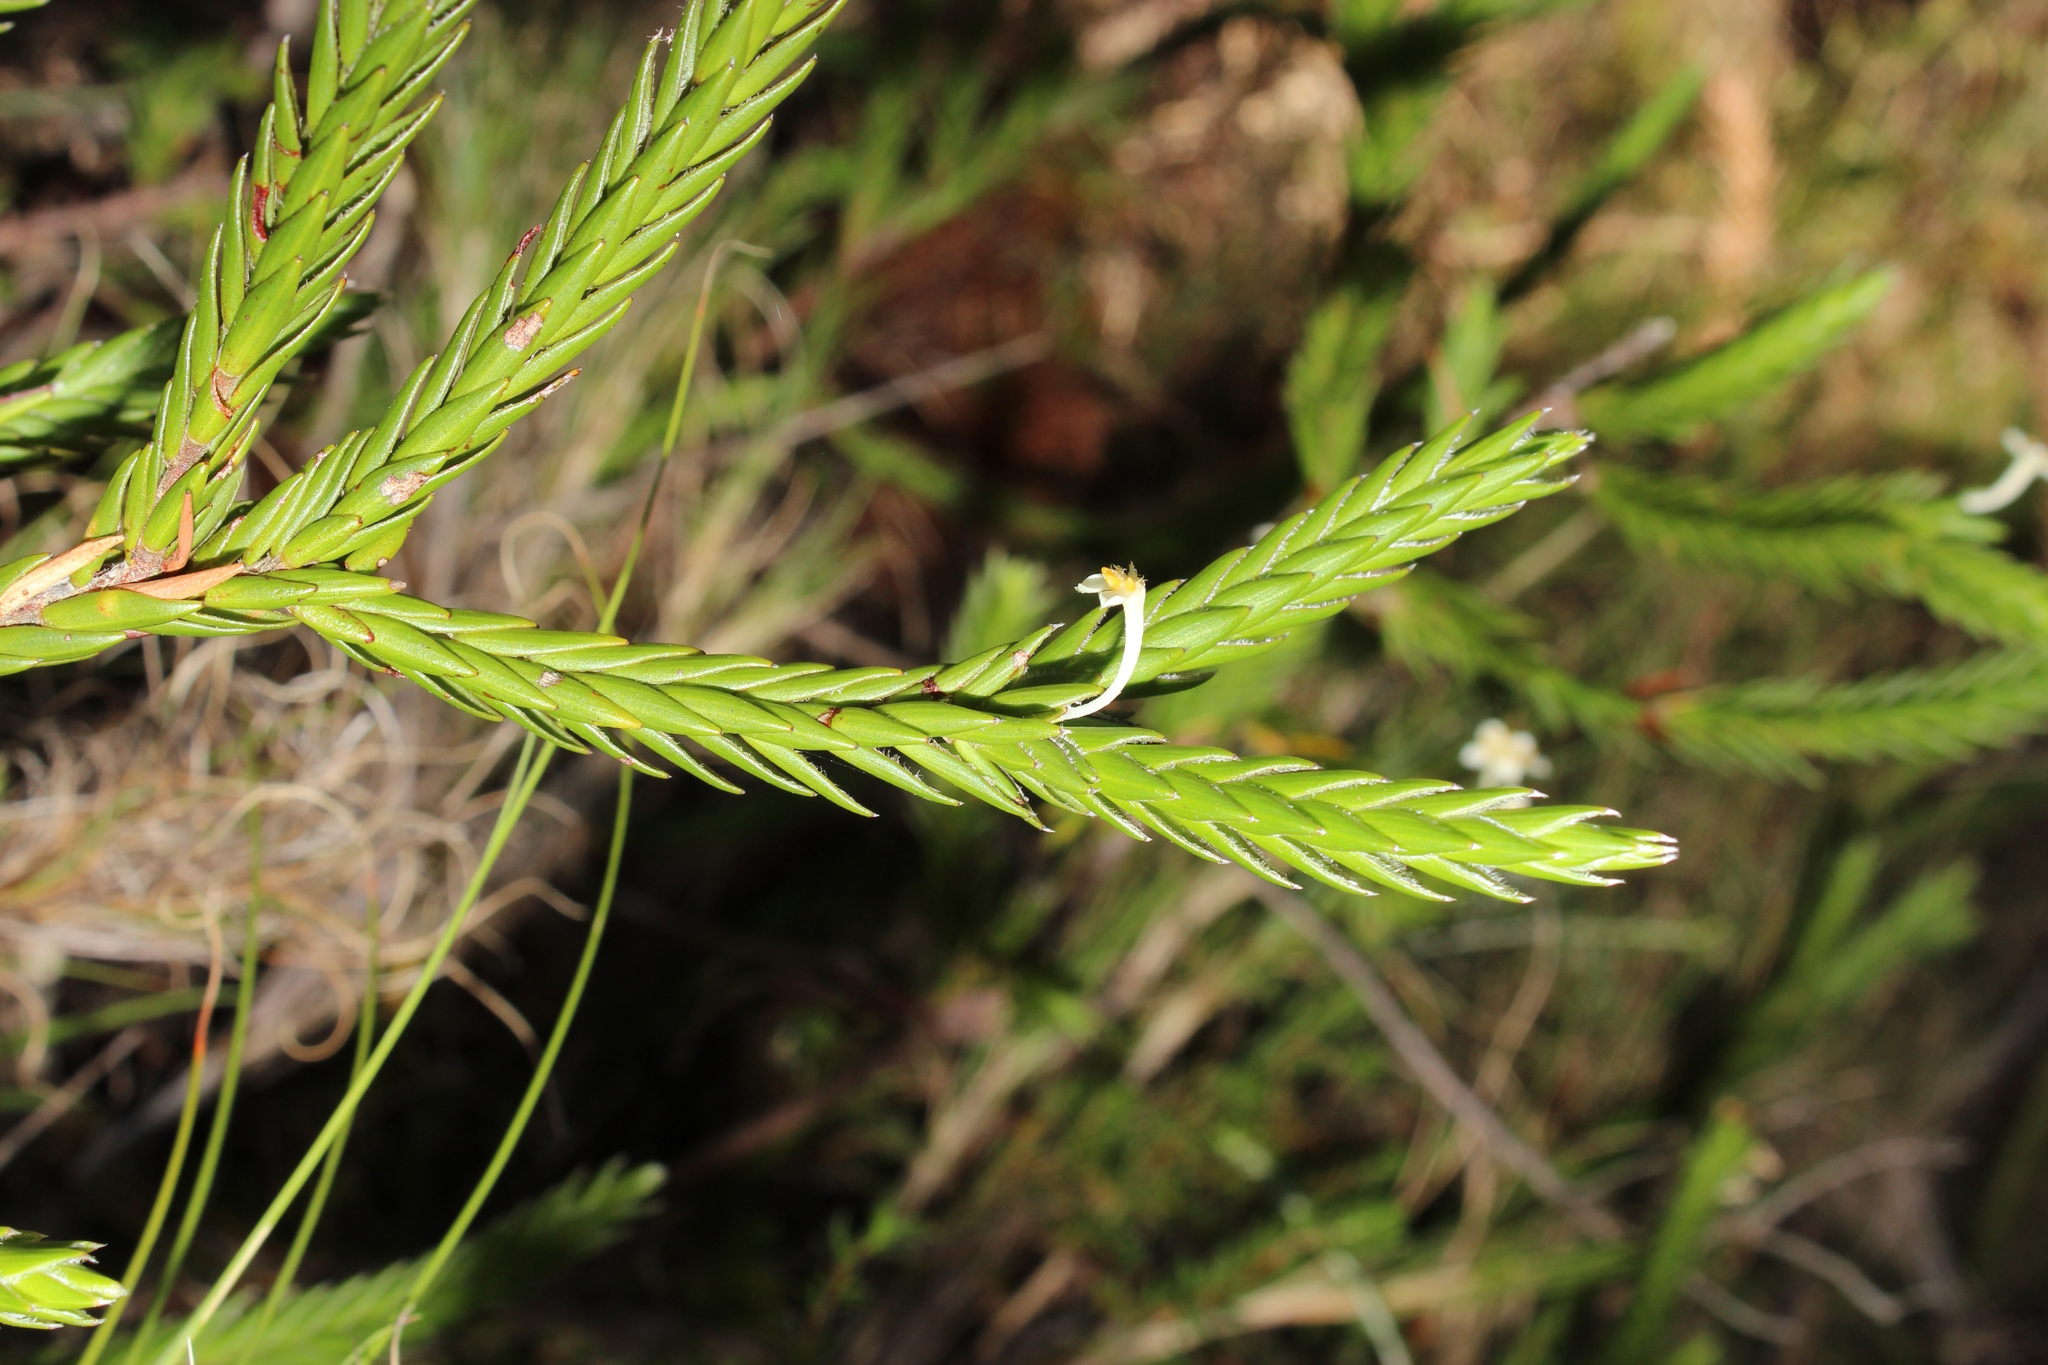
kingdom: Plantae
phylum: Tracheophyta
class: Magnoliopsida
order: Malvales
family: Thymelaeaceae
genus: Struthiola
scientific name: Struthiola ciliata
